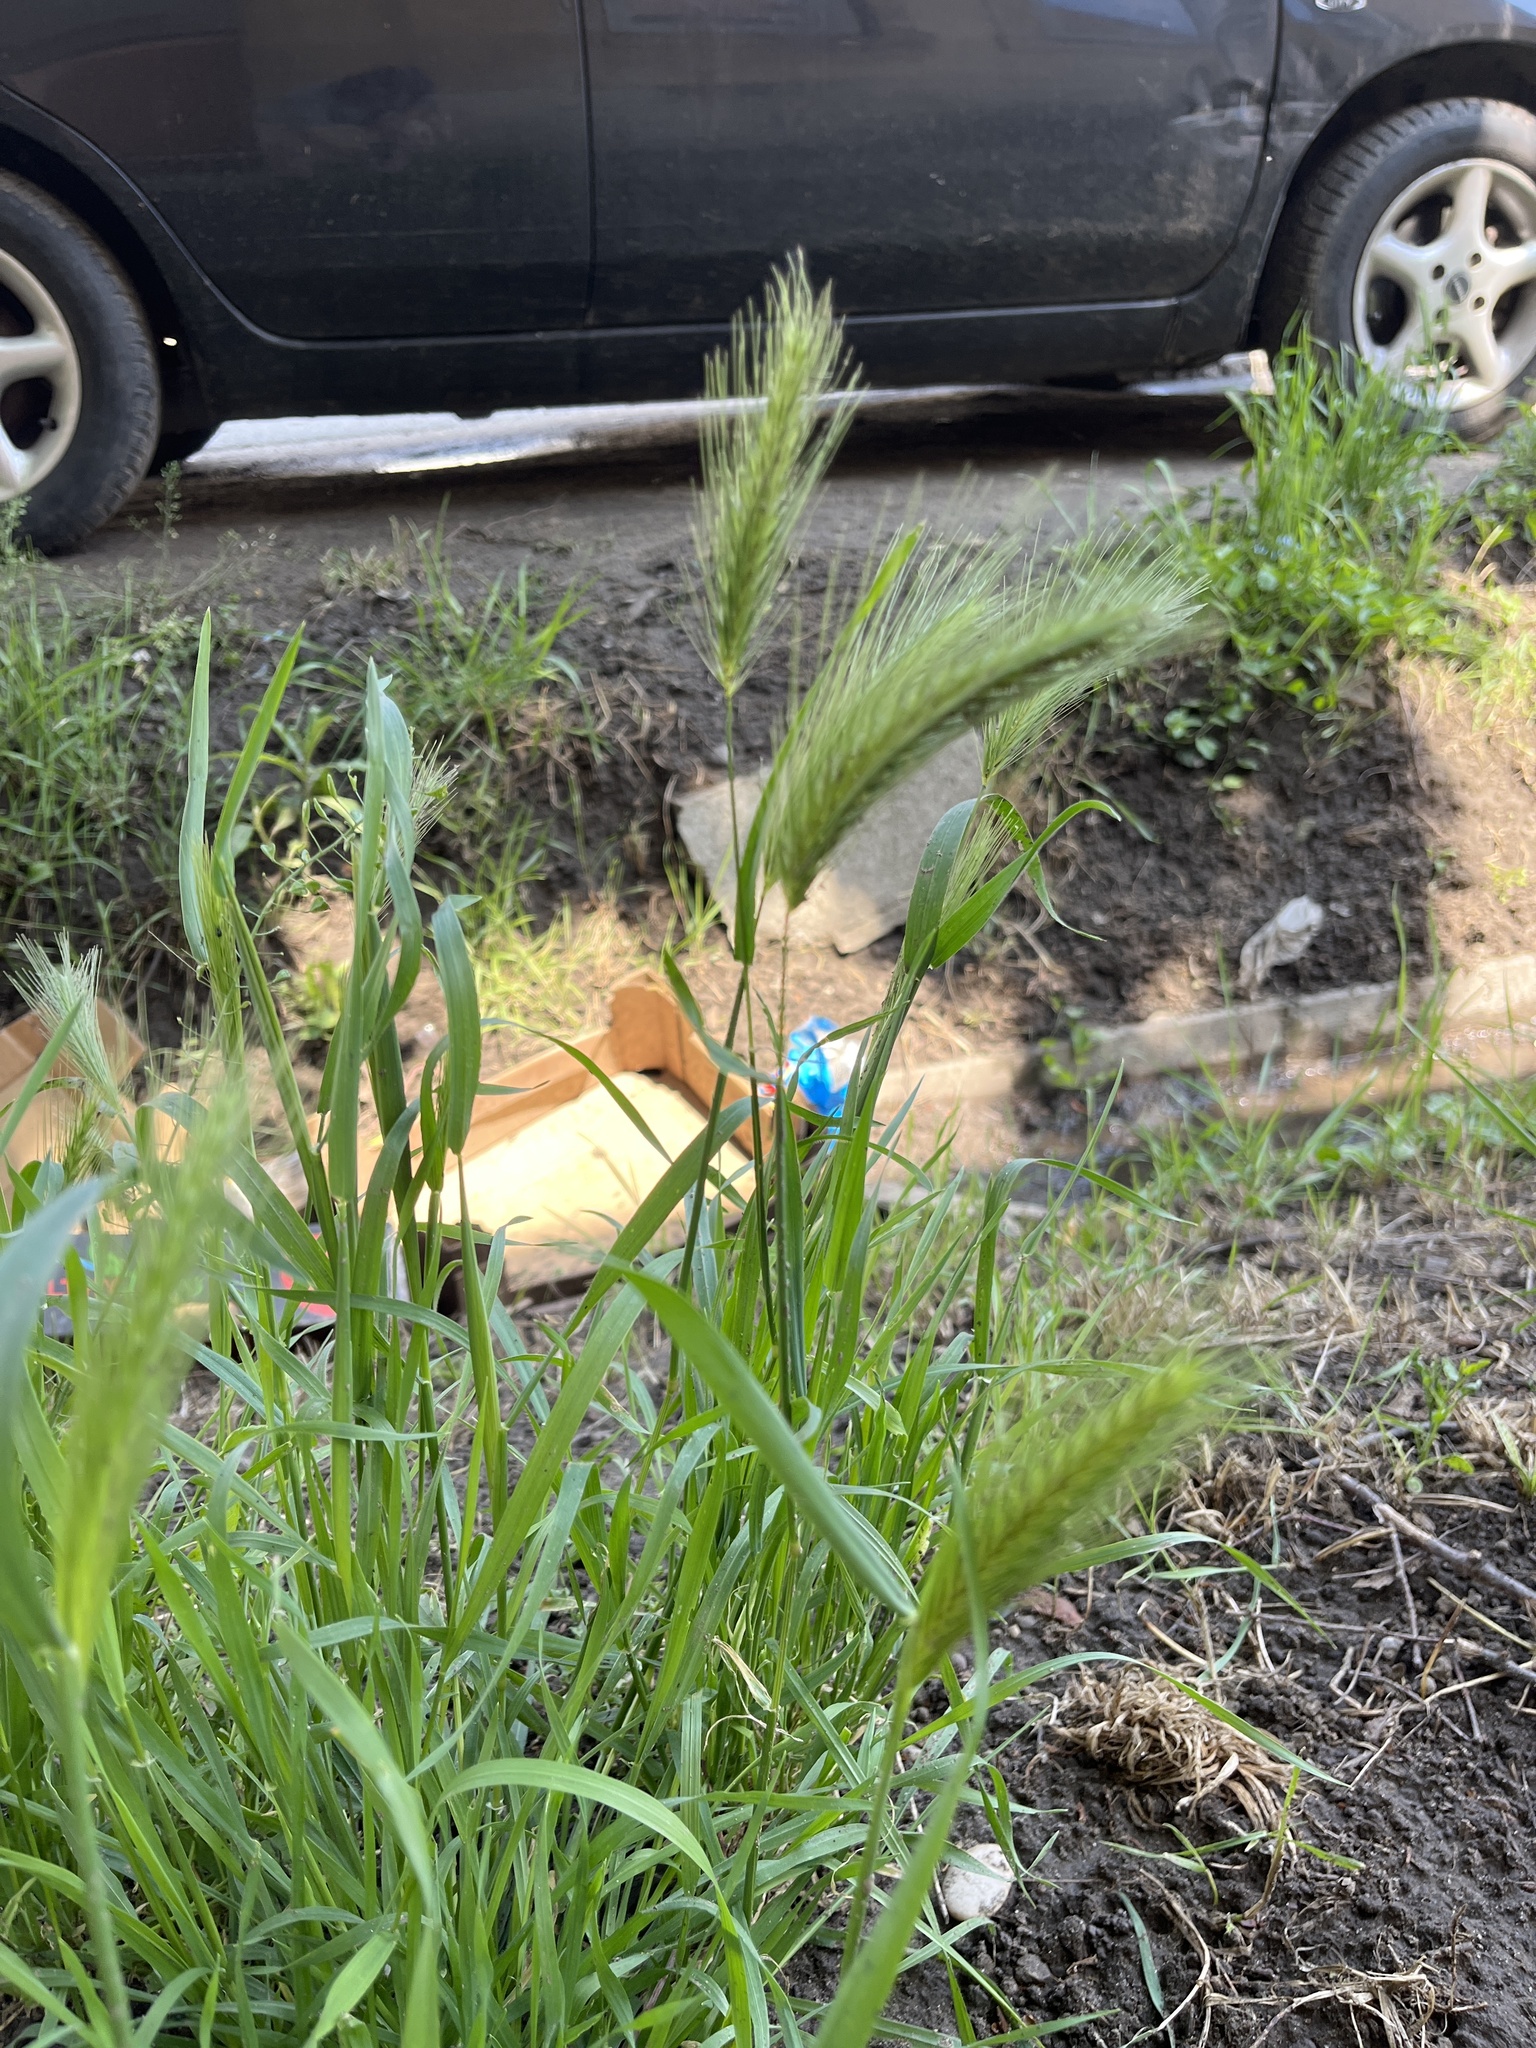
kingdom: Plantae
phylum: Tracheophyta
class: Liliopsida
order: Poales
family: Poaceae
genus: Hordeum
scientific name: Hordeum murinum
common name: Wall barley
